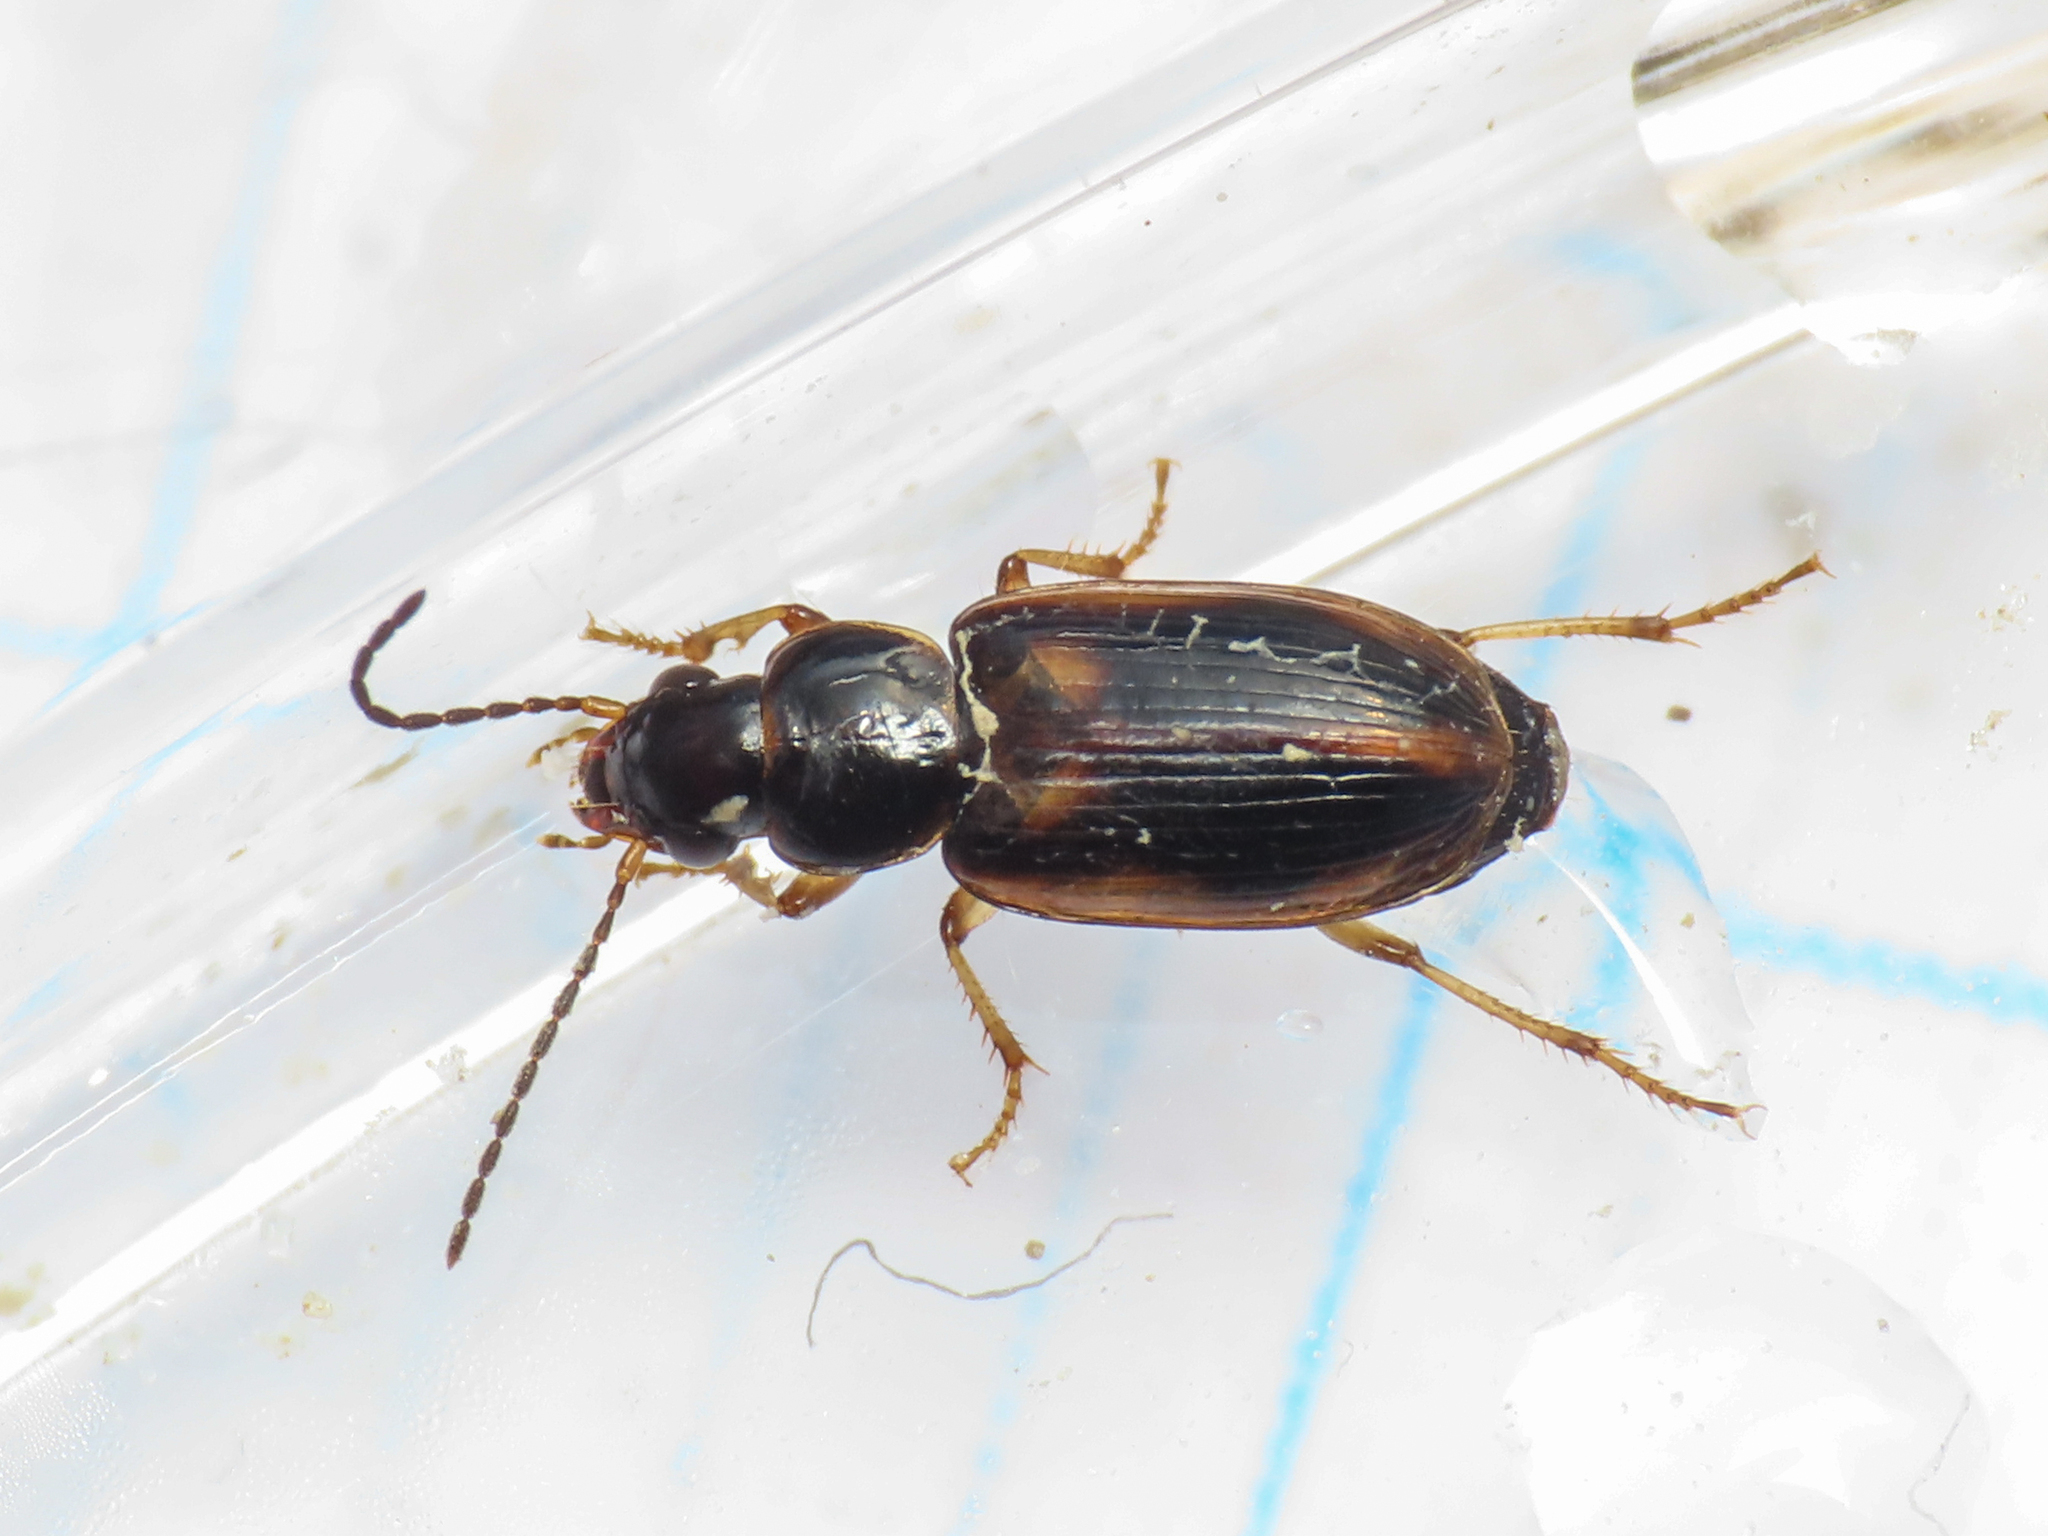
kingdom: Animalia
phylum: Arthropoda
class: Insecta
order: Coleoptera
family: Carabidae
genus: Acupalpus
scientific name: Acupalpus maculatus
